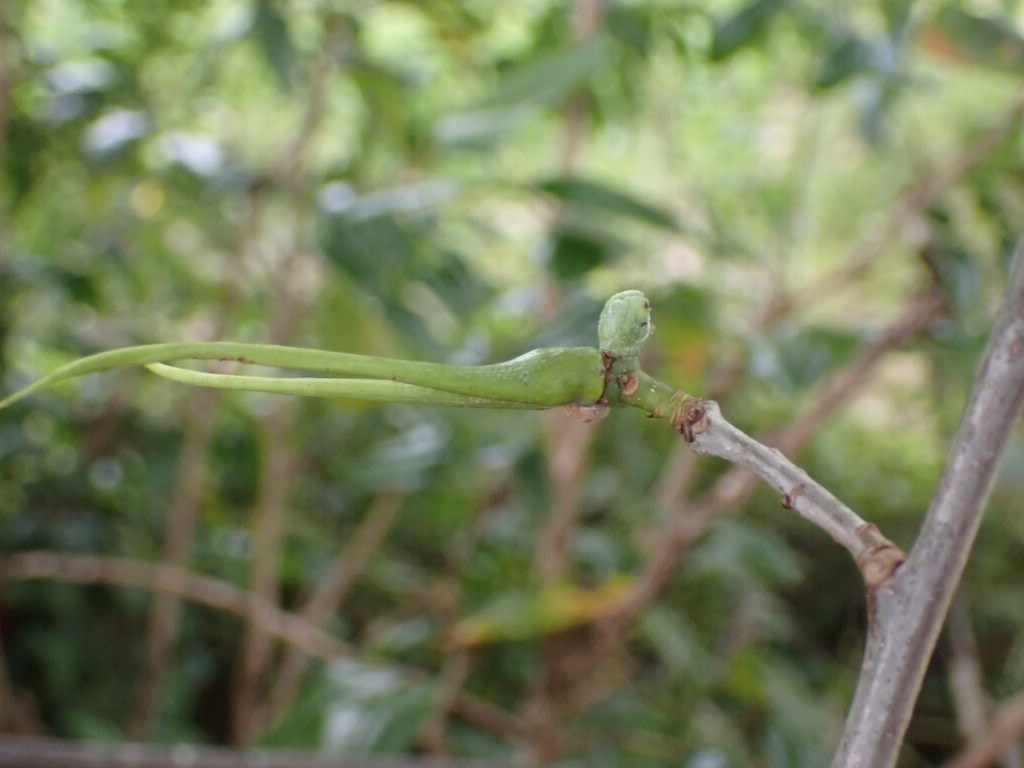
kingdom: Animalia
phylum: Arthropoda
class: Insecta
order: Hymenoptera
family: Cynipidae
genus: Andricus
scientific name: Andricus aries
